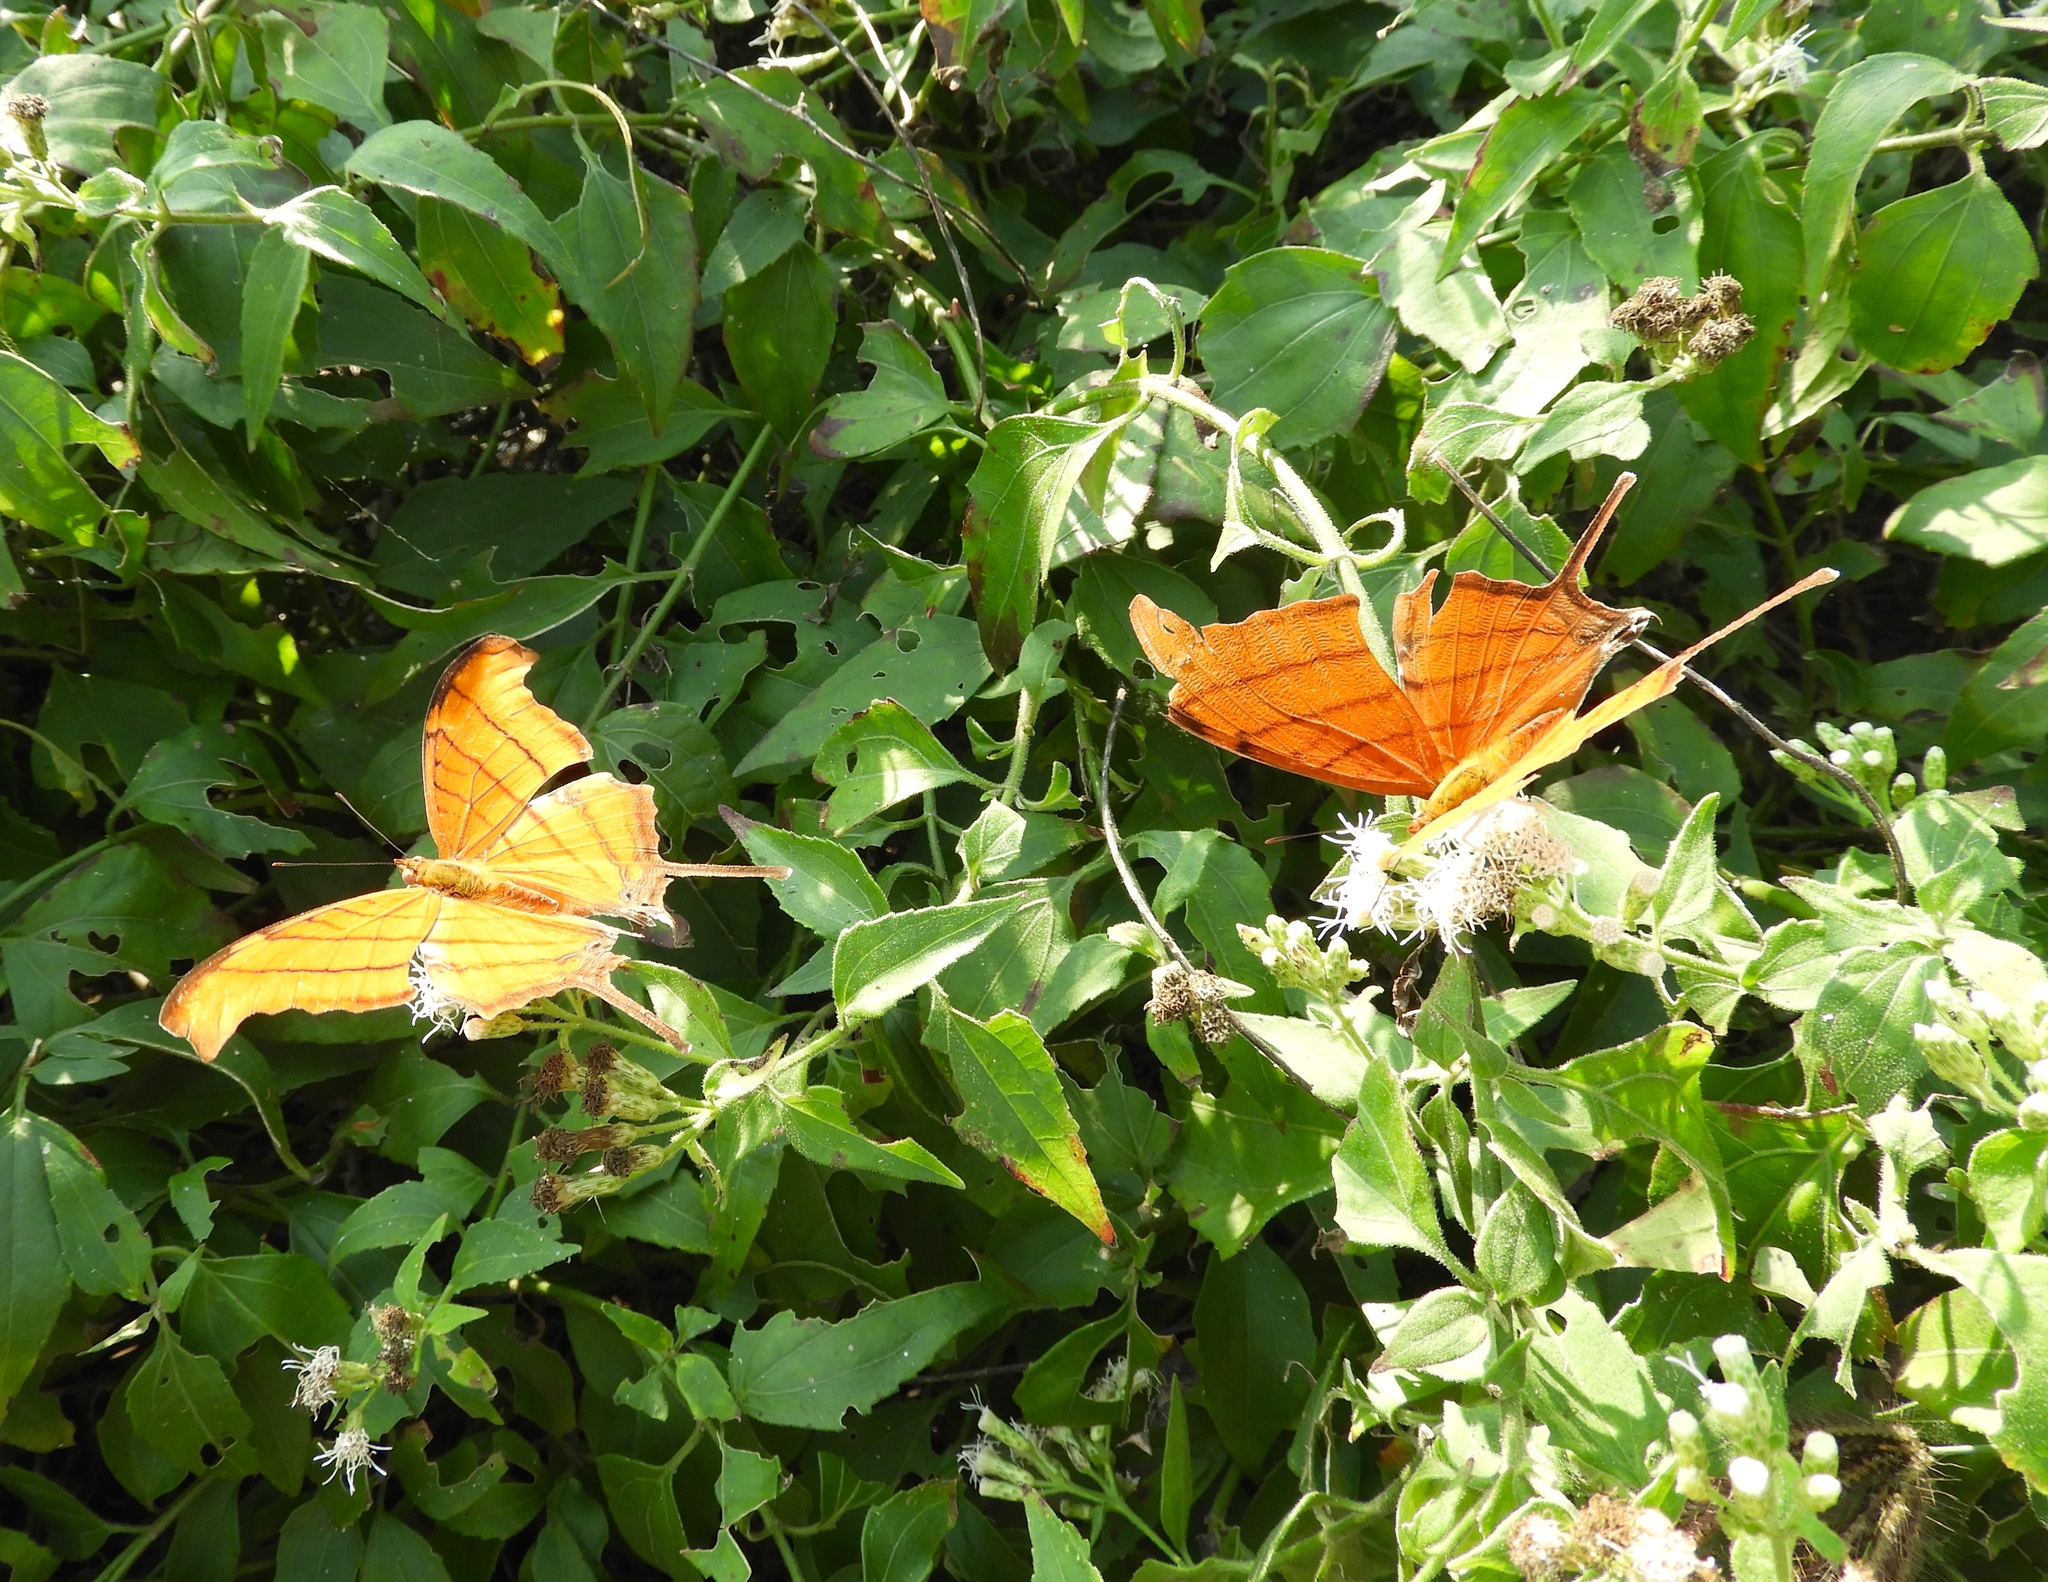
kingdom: Animalia
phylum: Arthropoda
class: Insecta
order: Lepidoptera
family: Nymphalidae
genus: Marpesia
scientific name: Marpesia petreus
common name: Red dagger wing
